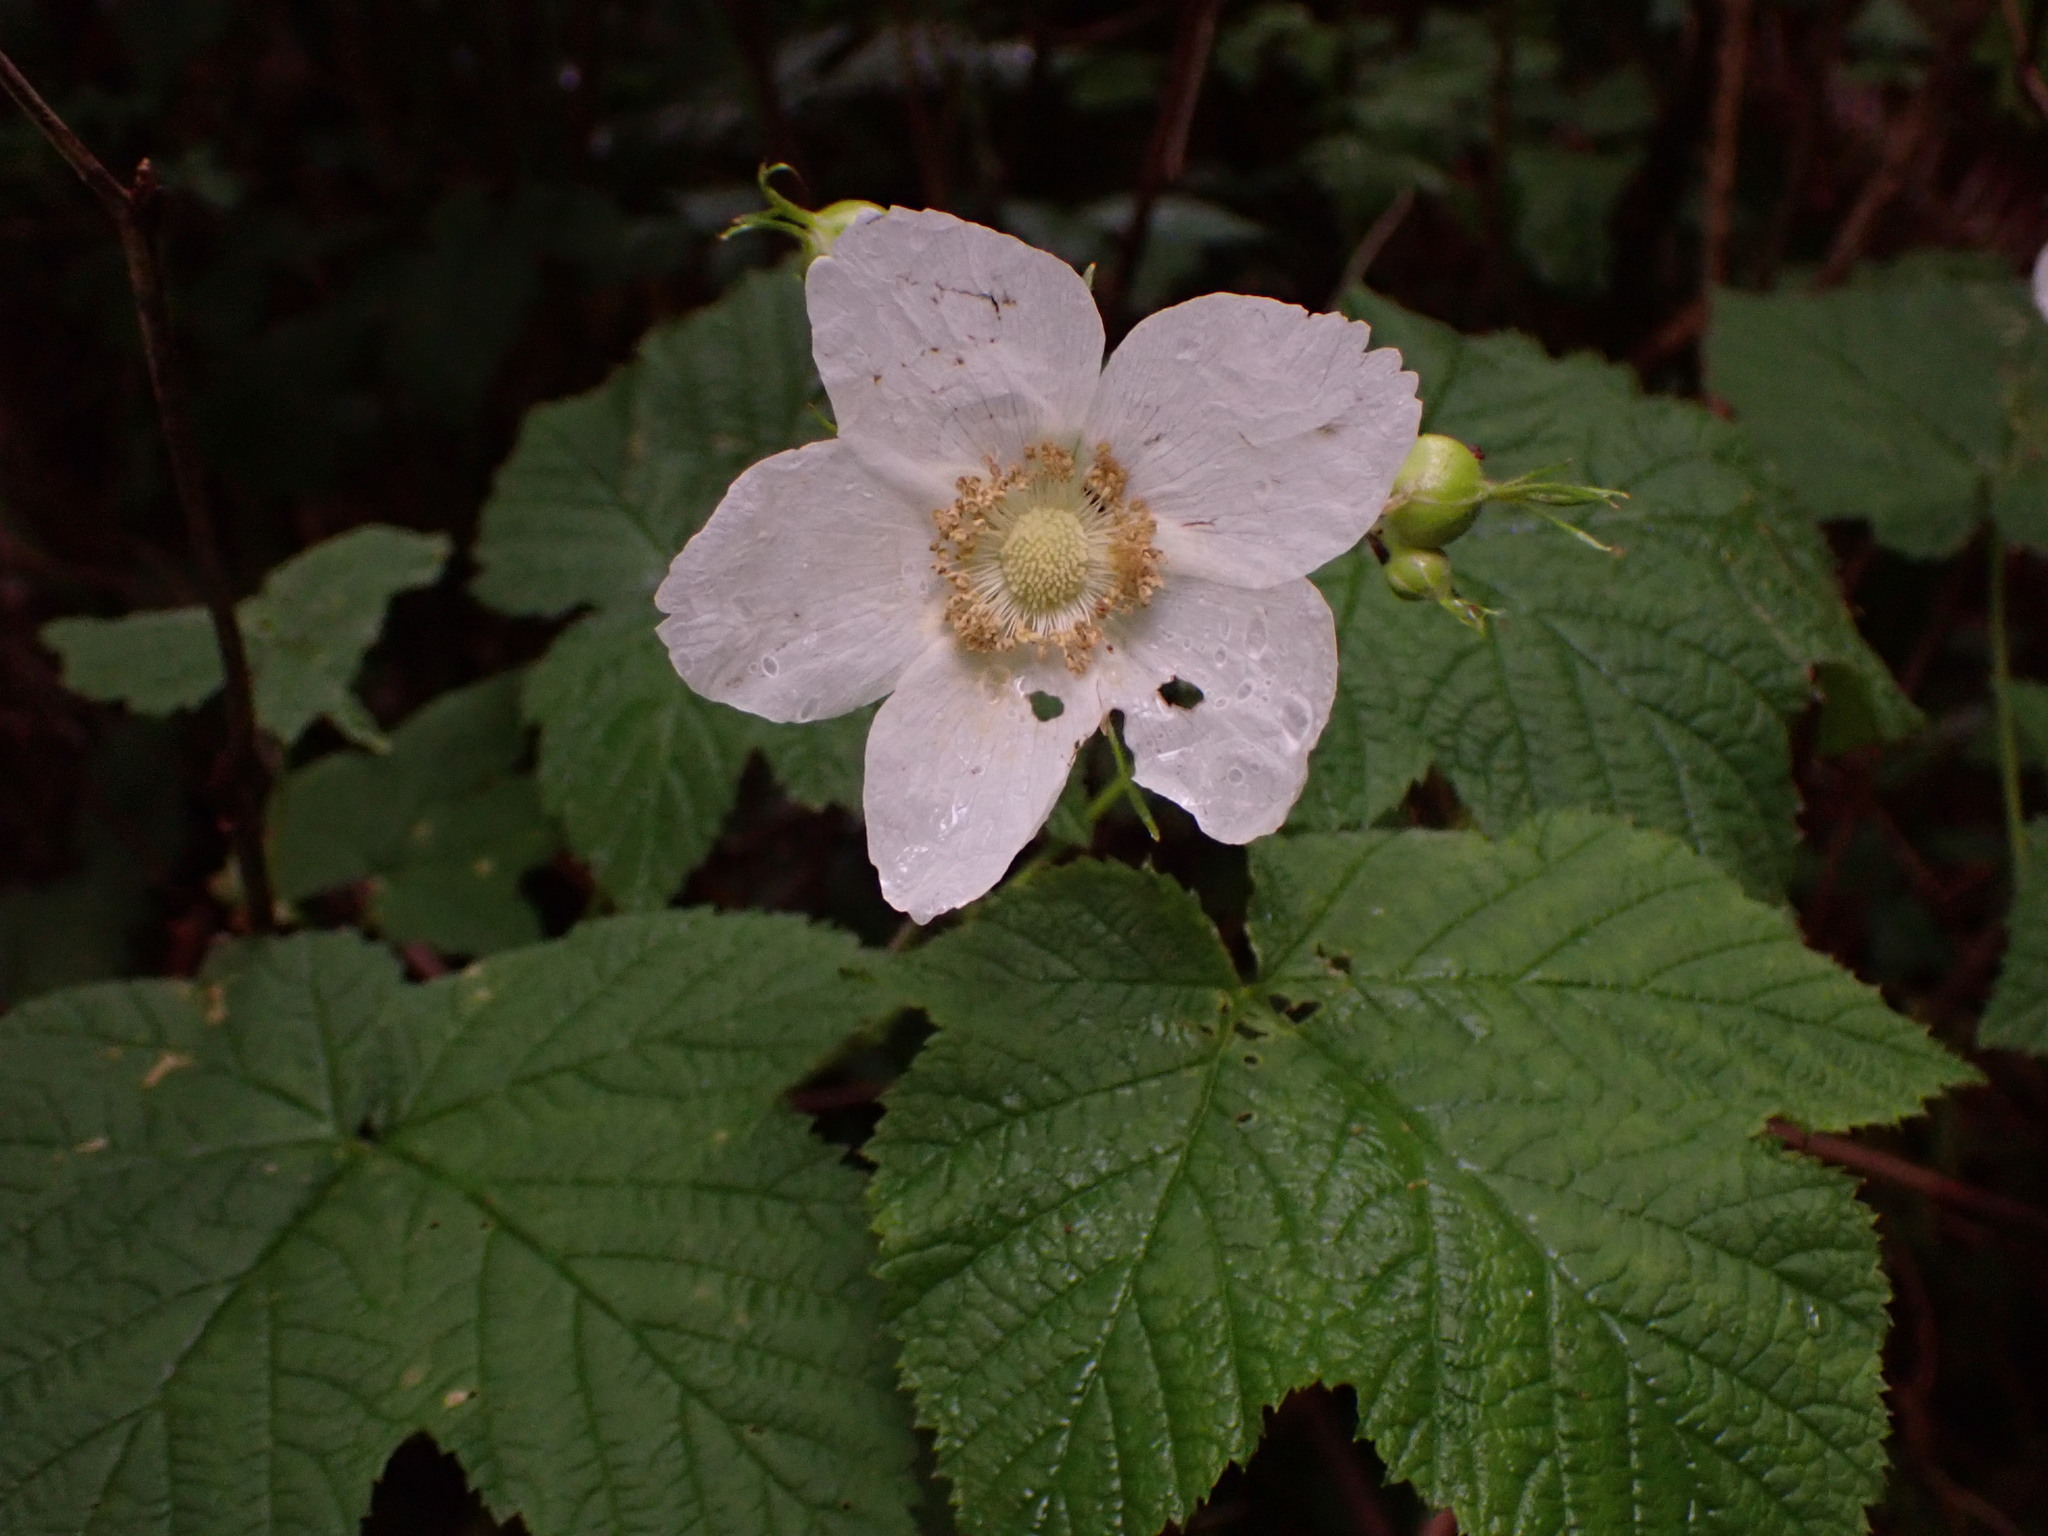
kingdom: Plantae
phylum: Tracheophyta
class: Magnoliopsida
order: Rosales
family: Rosaceae
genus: Rubus
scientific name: Rubus parviflorus
